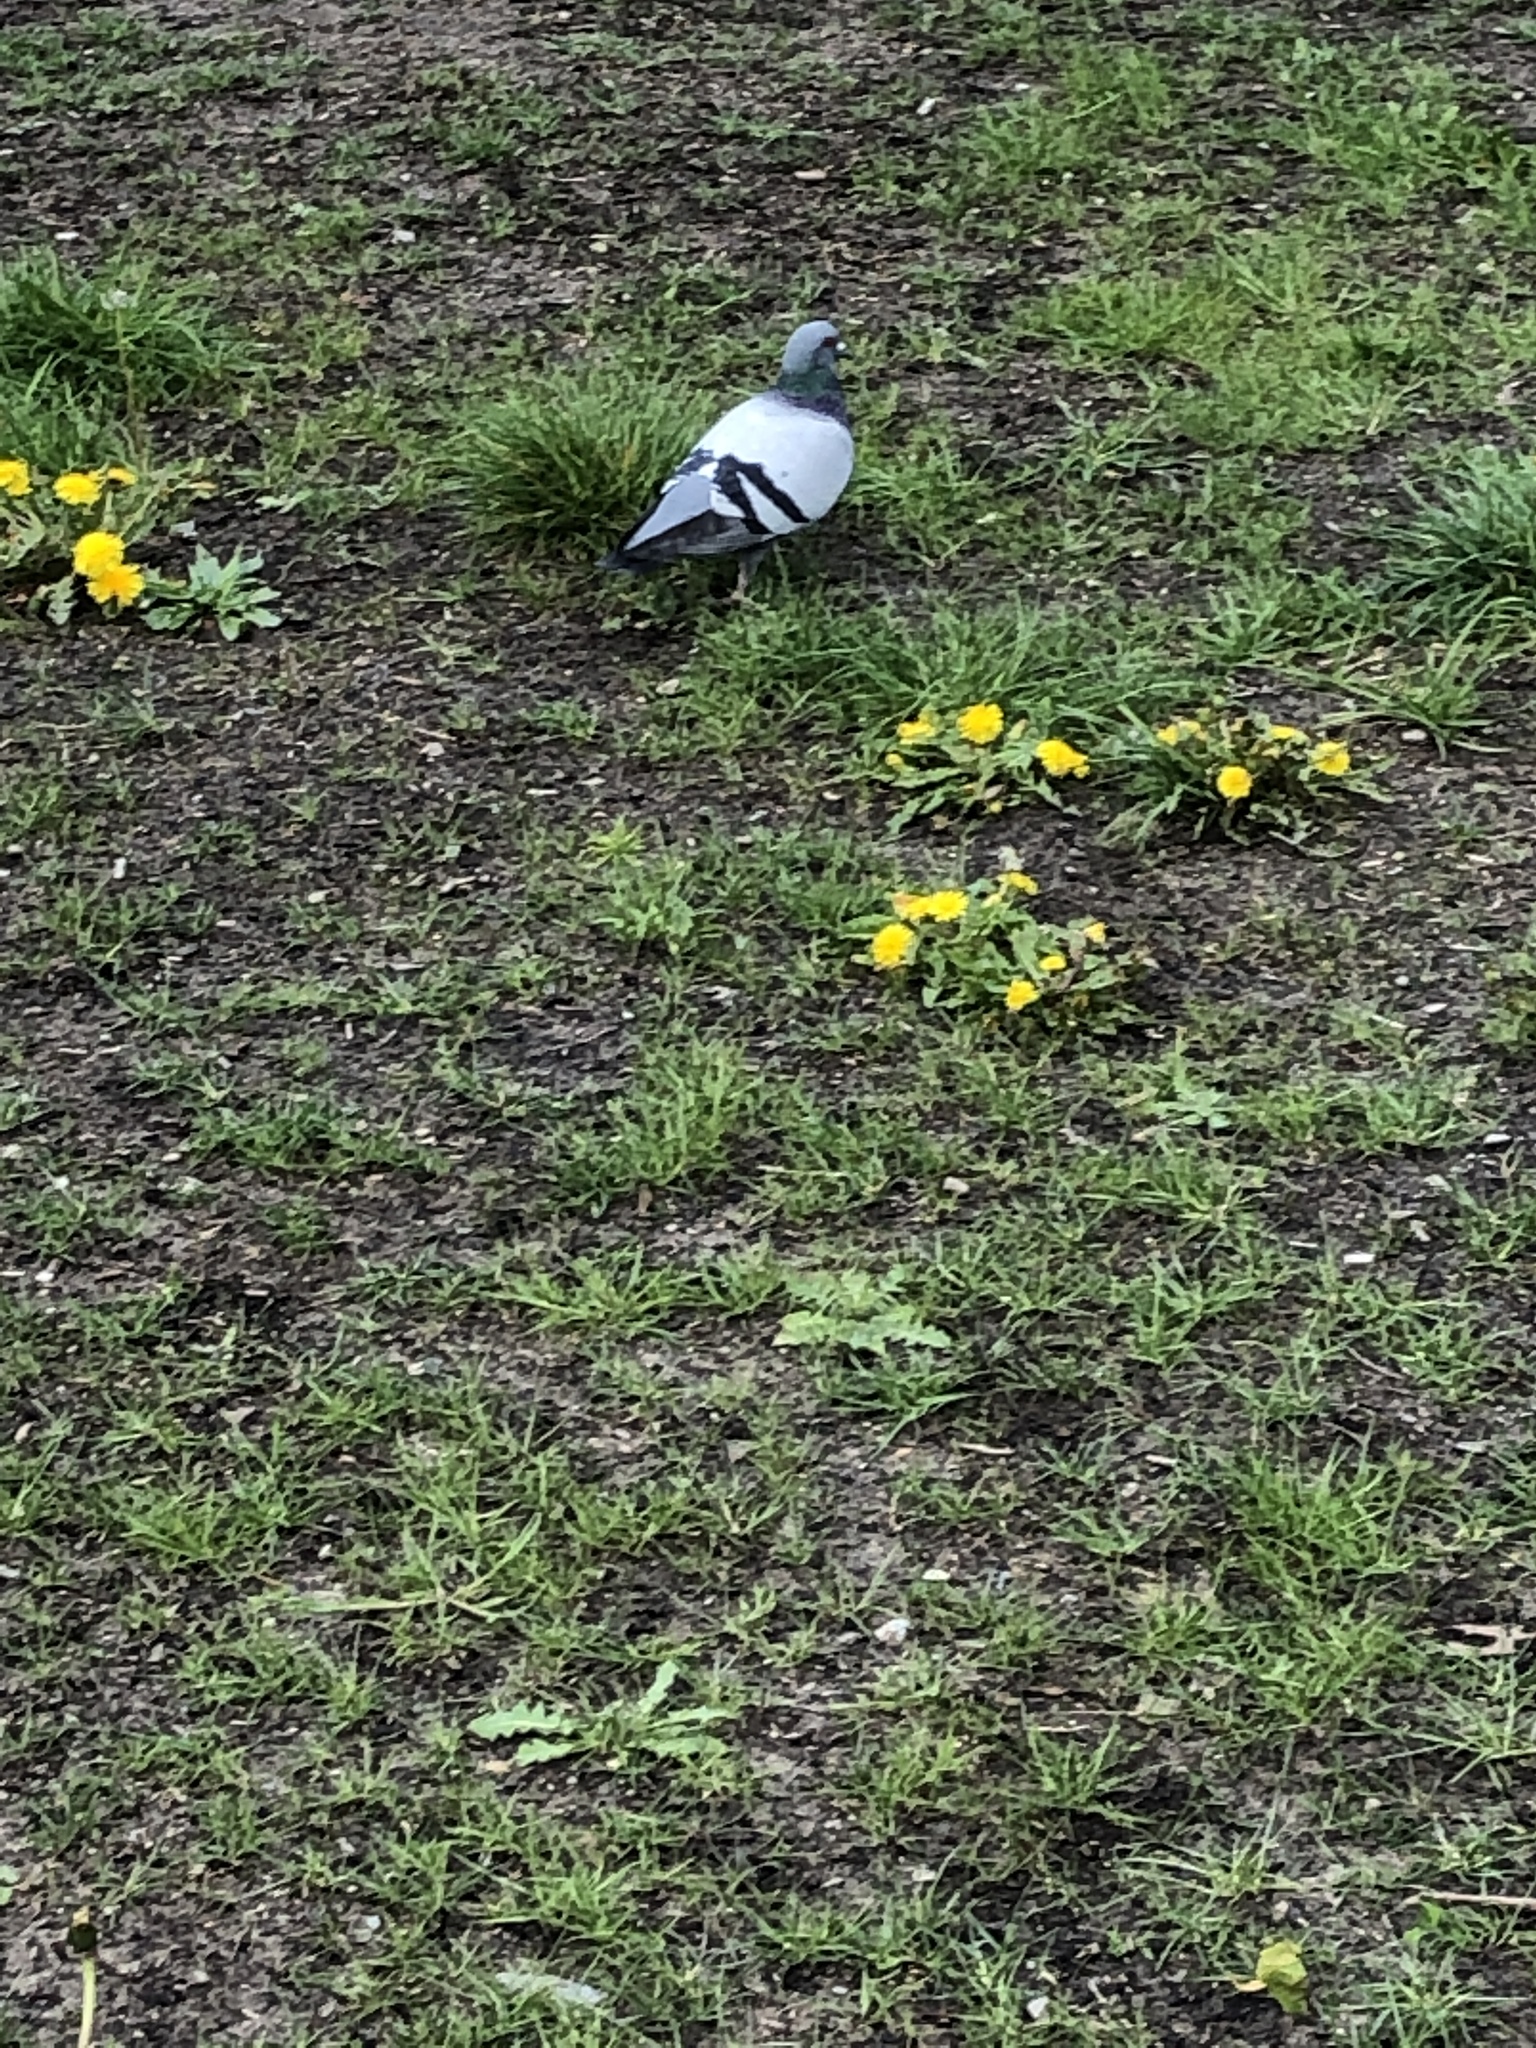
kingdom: Animalia
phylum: Chordata
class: Aves
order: Columbiformes
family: Columbidae
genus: Columba
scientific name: Columba livia
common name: Rock pigeon
